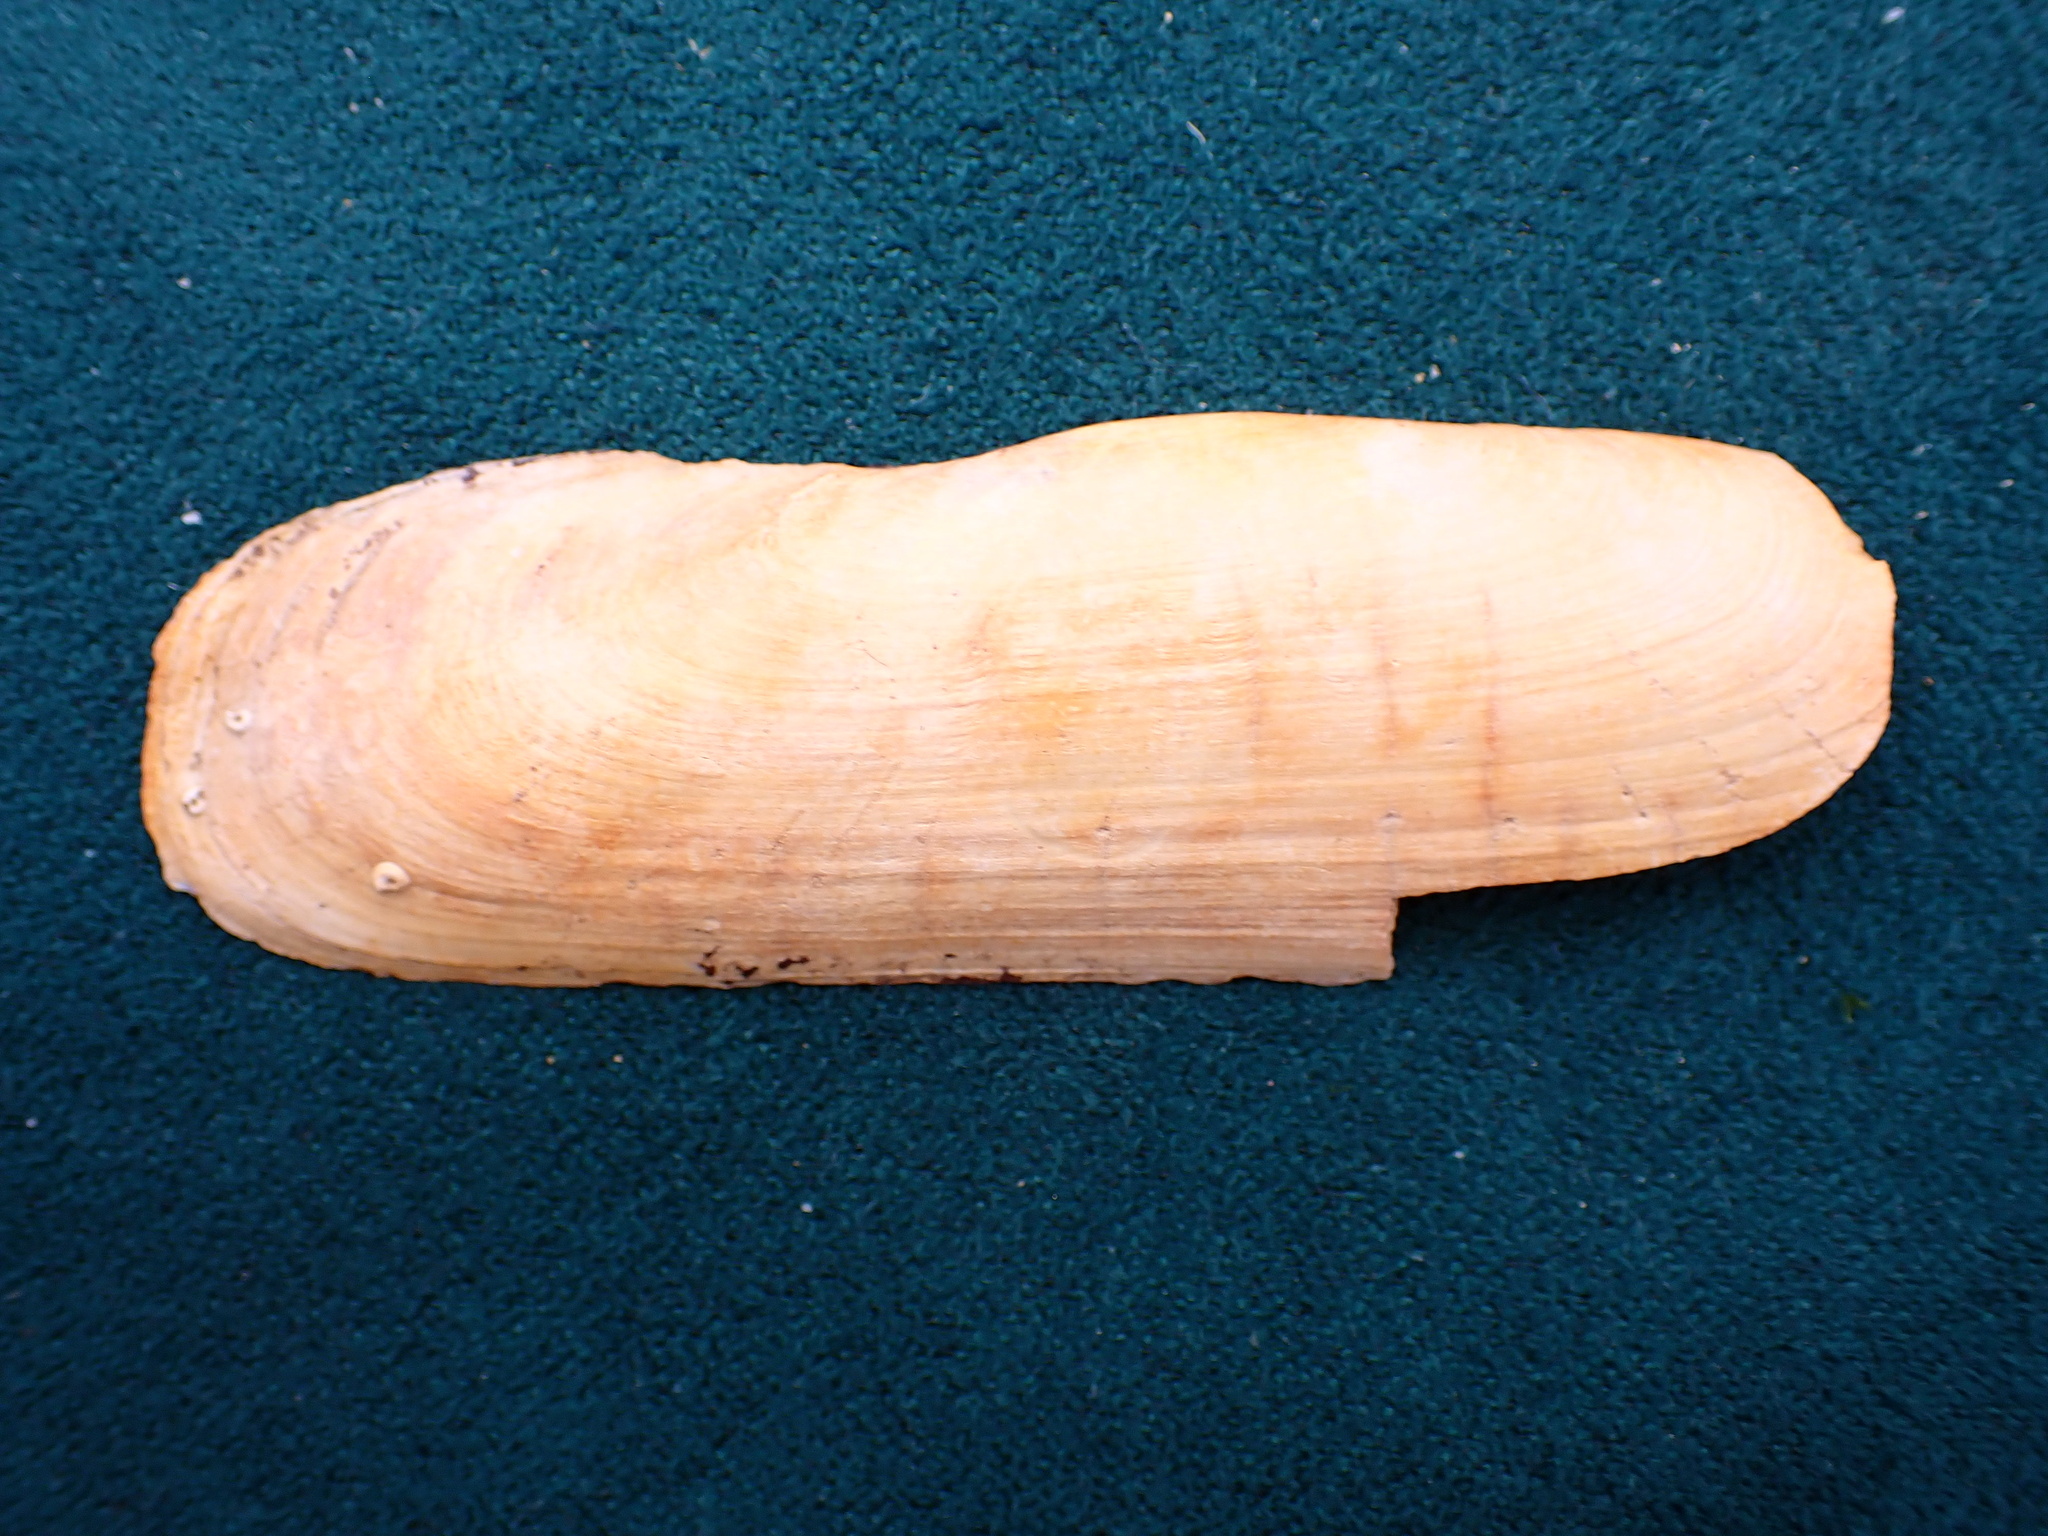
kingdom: Animalia
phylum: Mollusca
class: Bivalvia
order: Cardiida
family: Solecurtidae
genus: Tagelus
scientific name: Tagelus californianus
